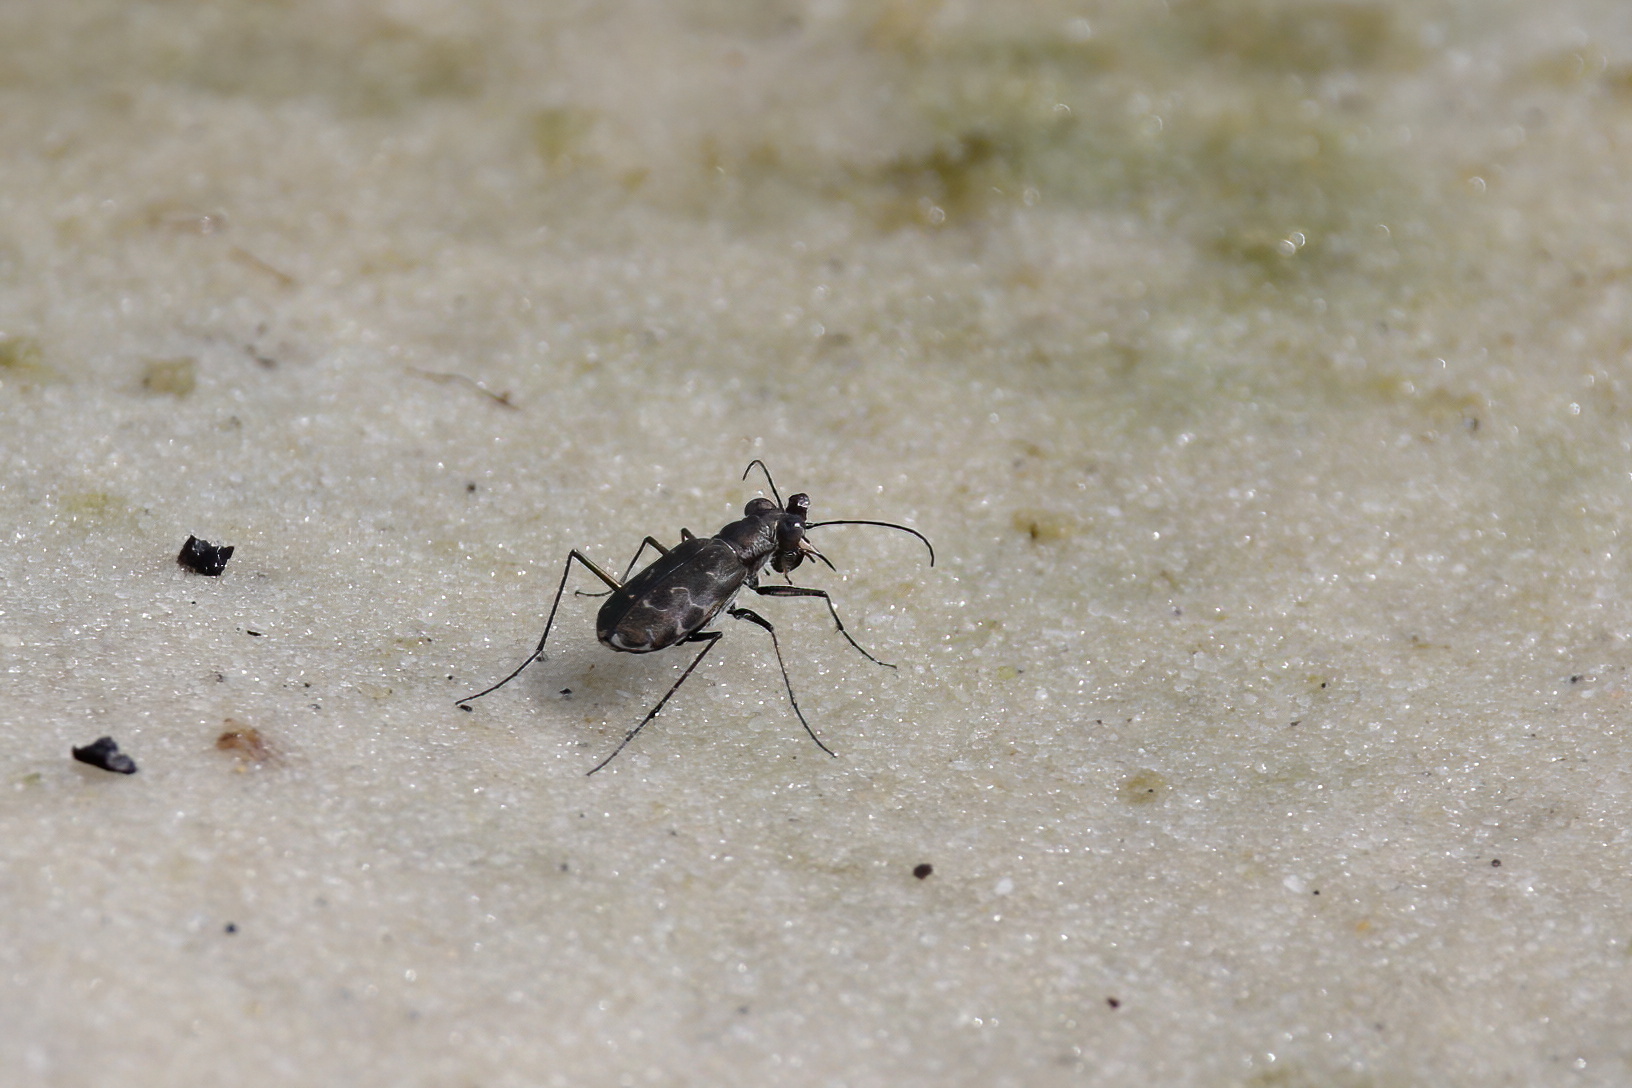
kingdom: Animalia
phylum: Arthropoda
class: Insecta
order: Coleoptera
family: Carabidae
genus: Cicindela
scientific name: Cicindela trifasciata
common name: Mudflat tiger beetle
